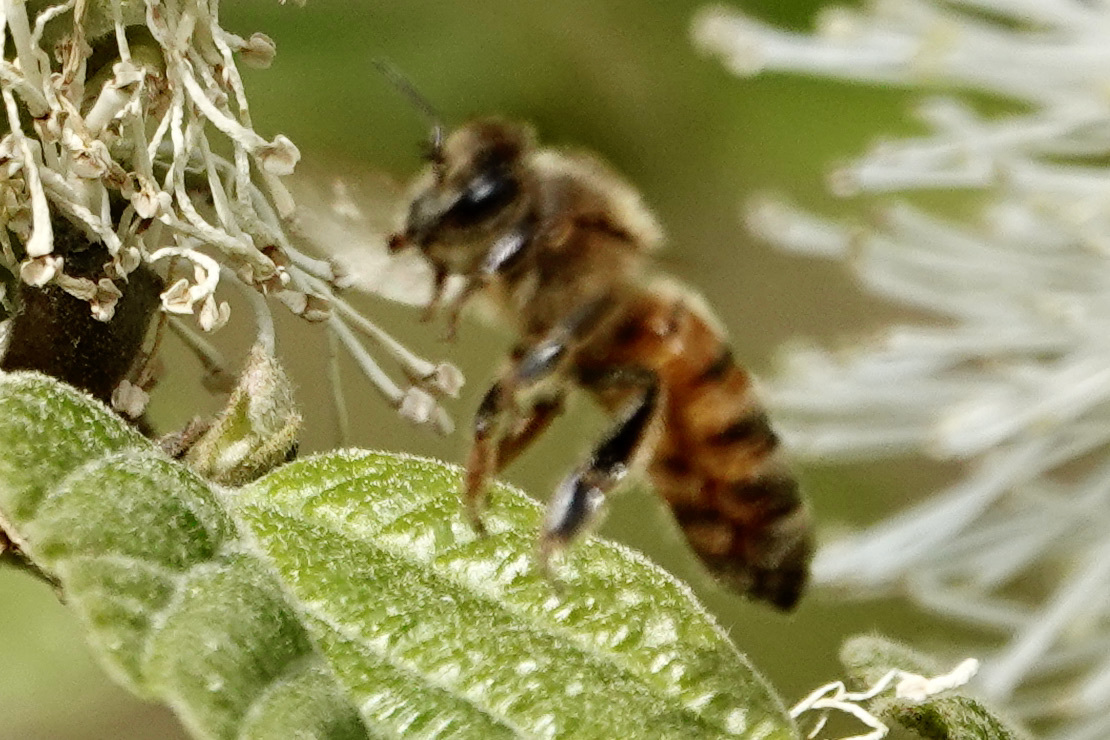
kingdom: Animalia
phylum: Arthropoda
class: Insecta
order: Hymenoptera
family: Apidae
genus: Apis
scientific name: Apis mellifera
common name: Honey bee
